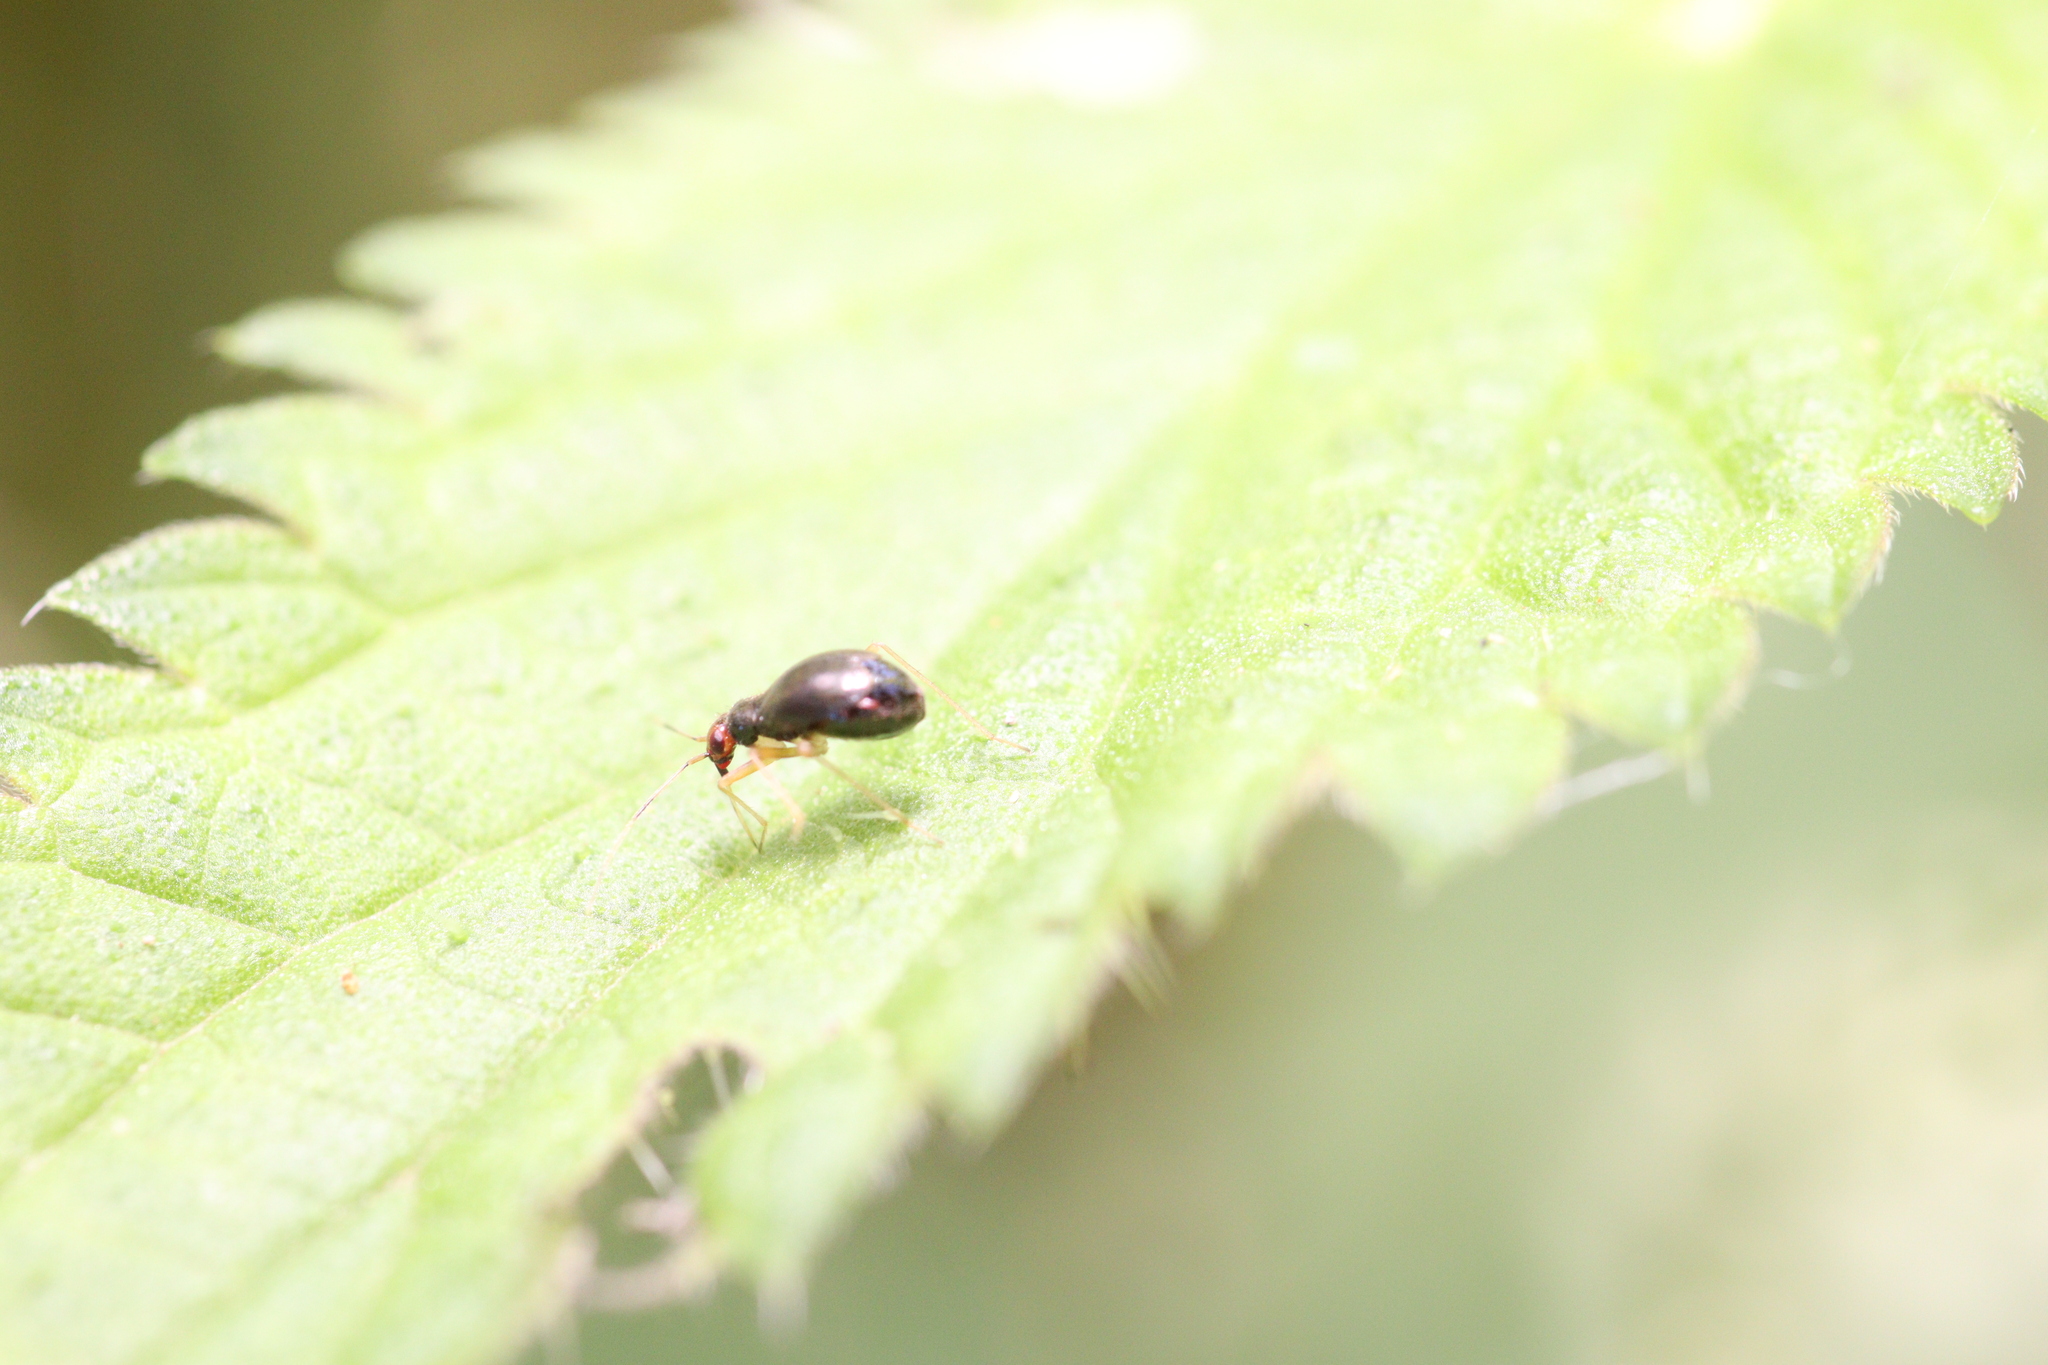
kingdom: Animalia
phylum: Arthropoda
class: Insecta
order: Hemiptera
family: Miridae
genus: Orthonotus
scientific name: Orthonotus rufifrons
